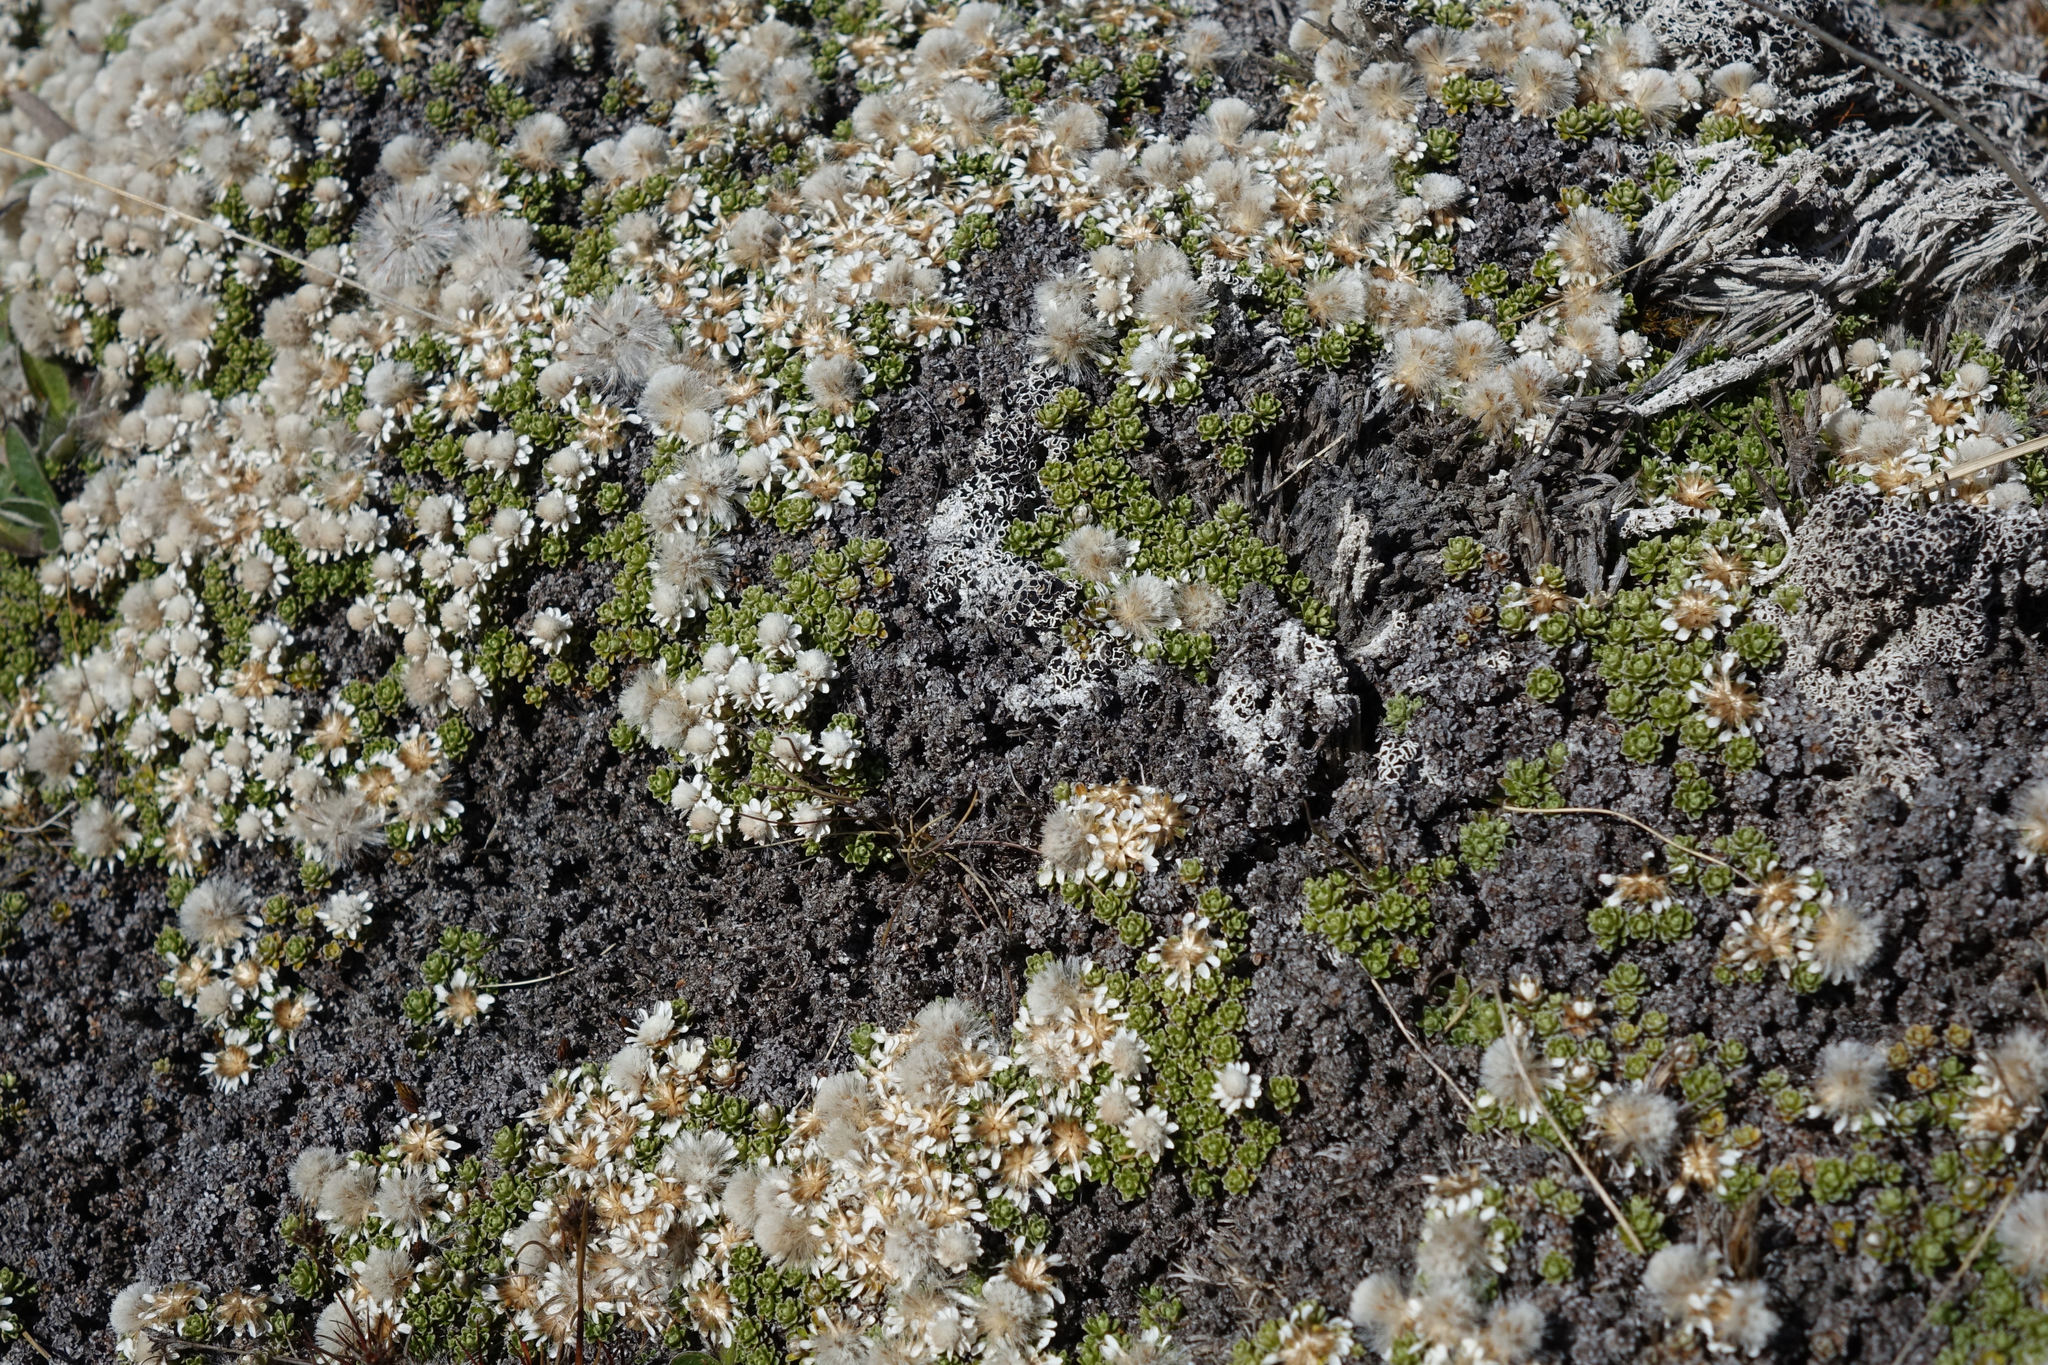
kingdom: Plantae
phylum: Tracheophyta
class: Magnoliopsida
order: Asterales
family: Asteraceae
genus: Raoulia
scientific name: Raoulia subsericea
